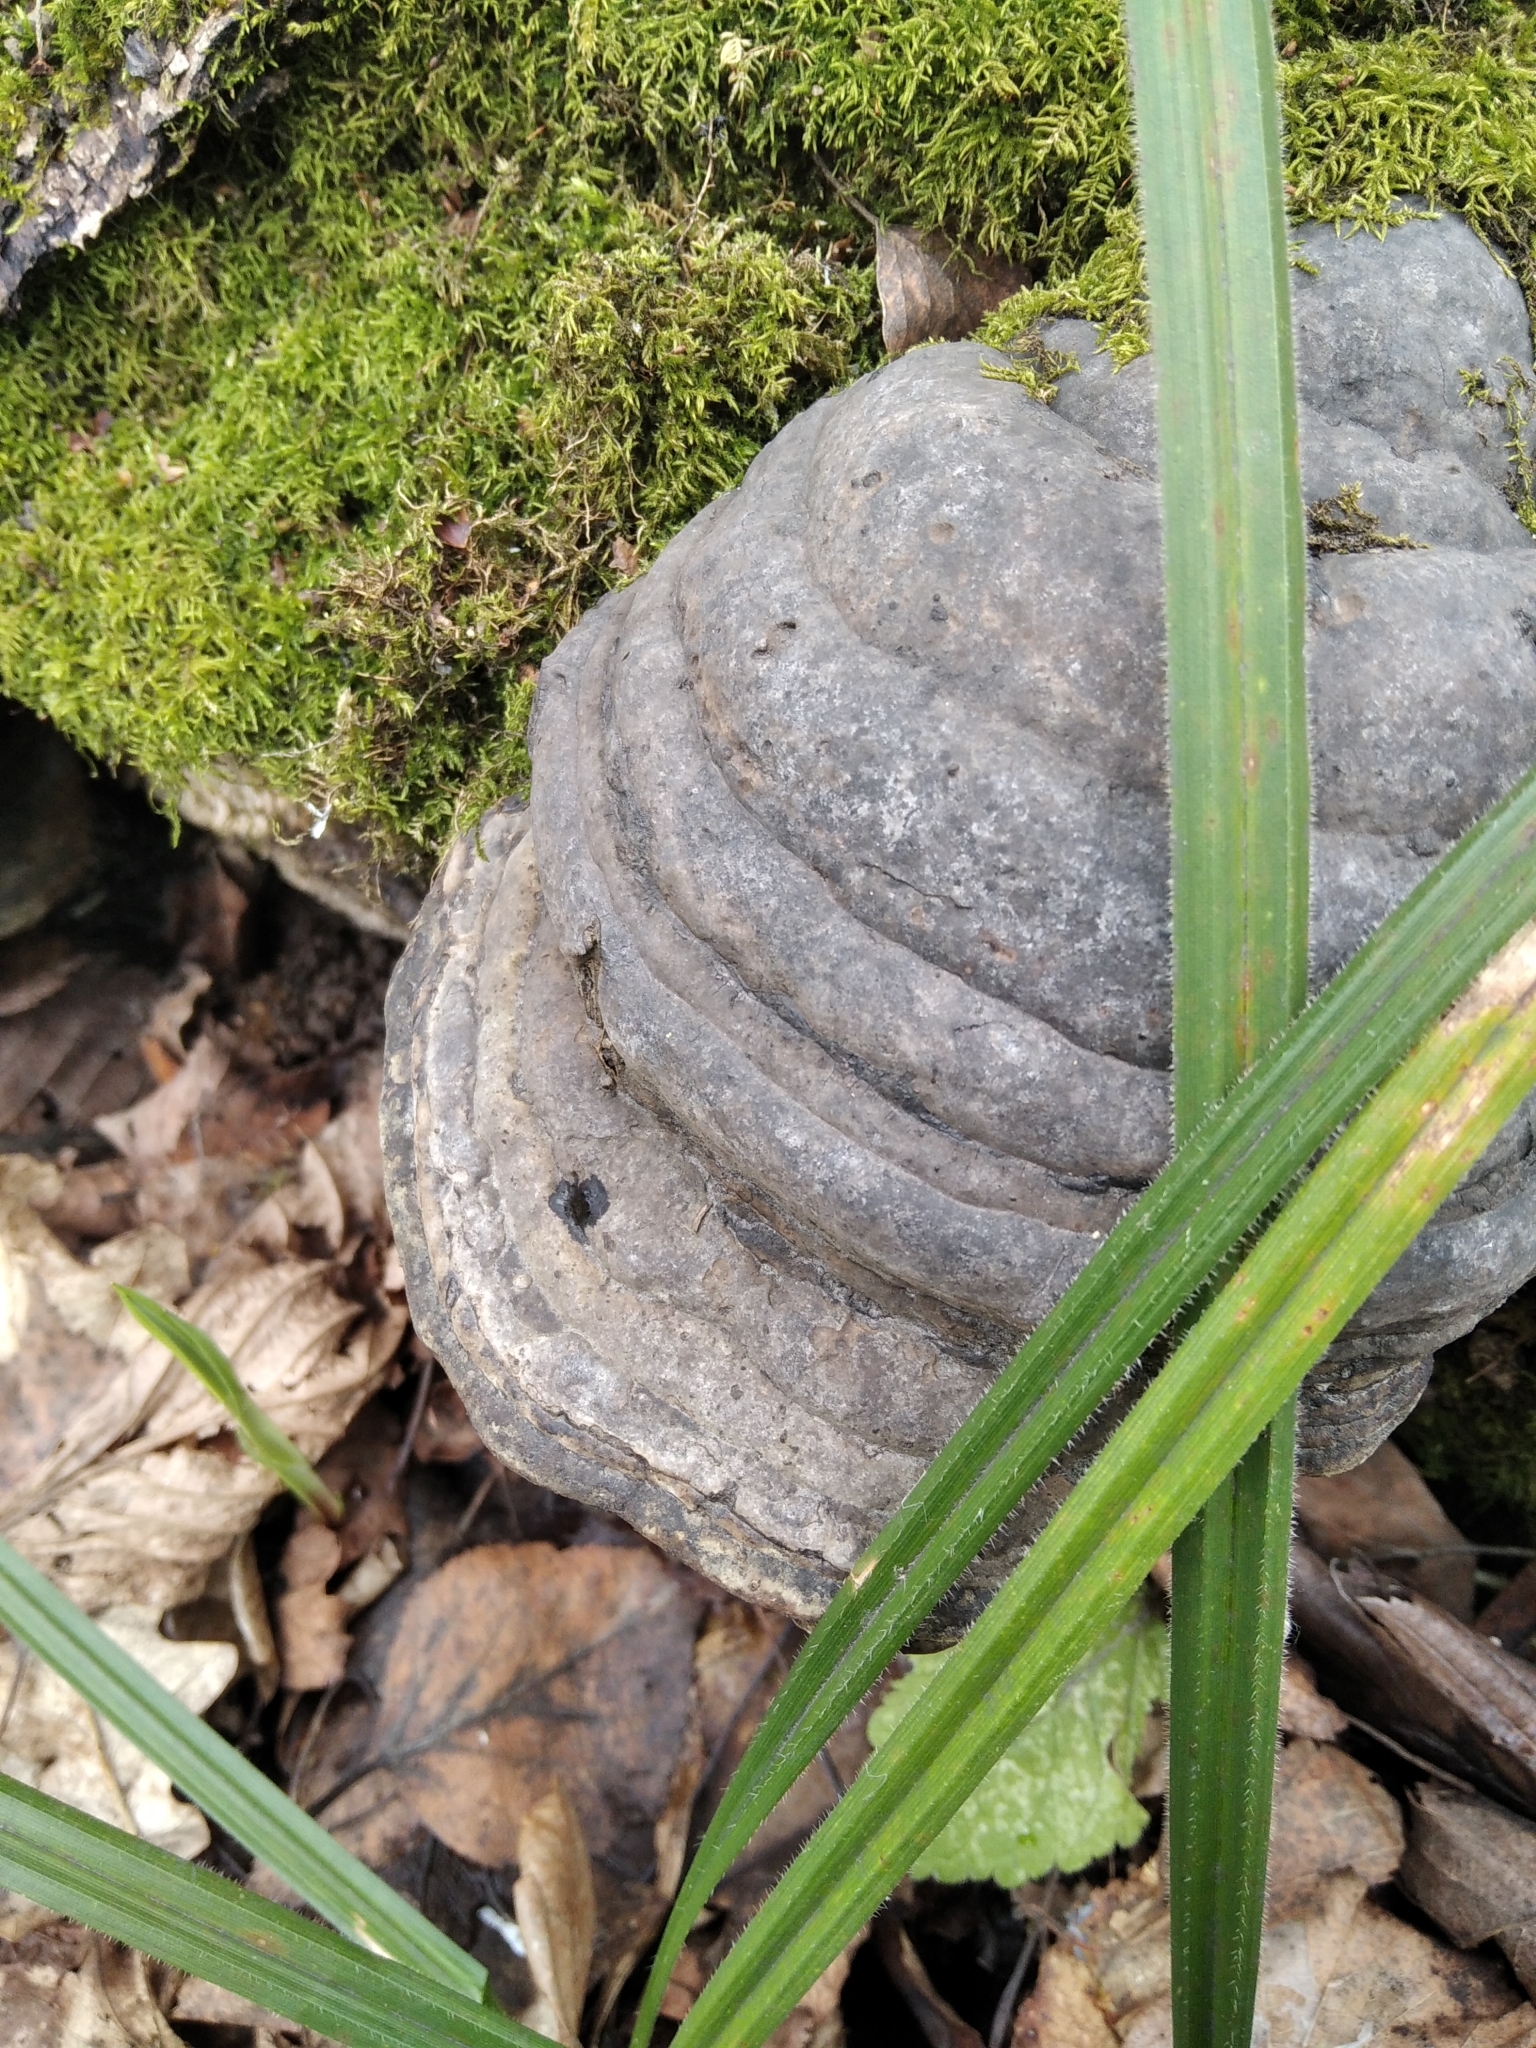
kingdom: Fungi
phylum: Basidiomycota
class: Agaricomycetes
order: Polyporales
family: Polyporaceae
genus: Fomes
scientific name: Fomes fomentarius
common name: Hoof fungus
